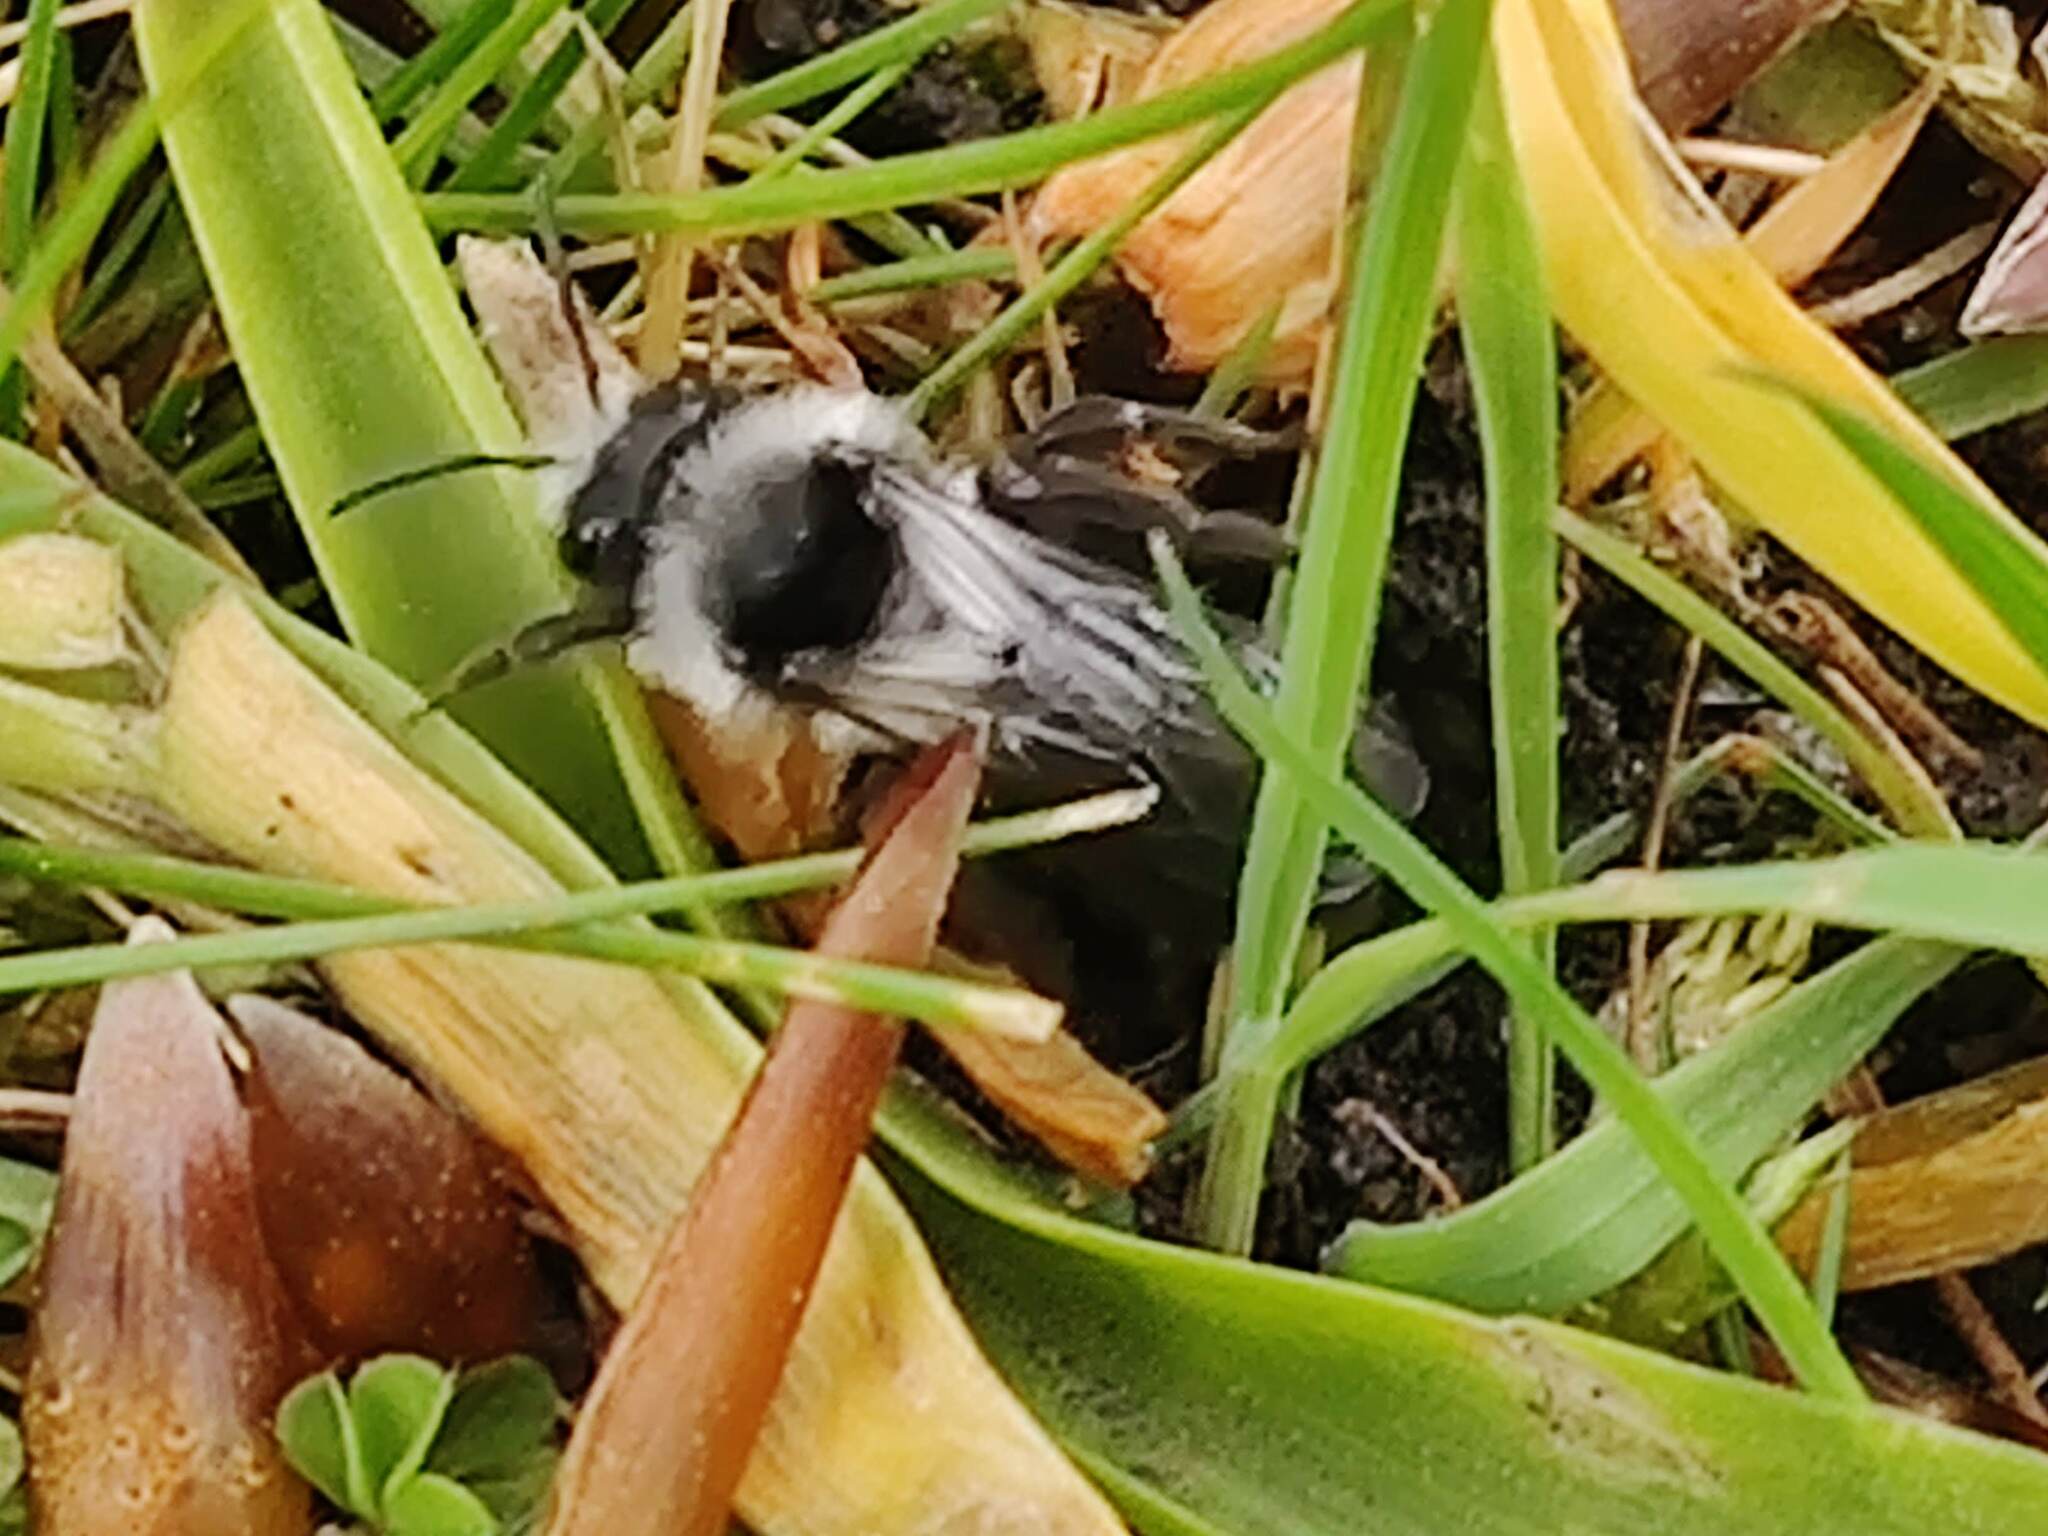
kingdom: Animalia
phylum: Arthropoda
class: Insecta
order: Hymenoptera
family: Andrenidae
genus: Andrena
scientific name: Andrena cineraria
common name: Ashy mining bee
